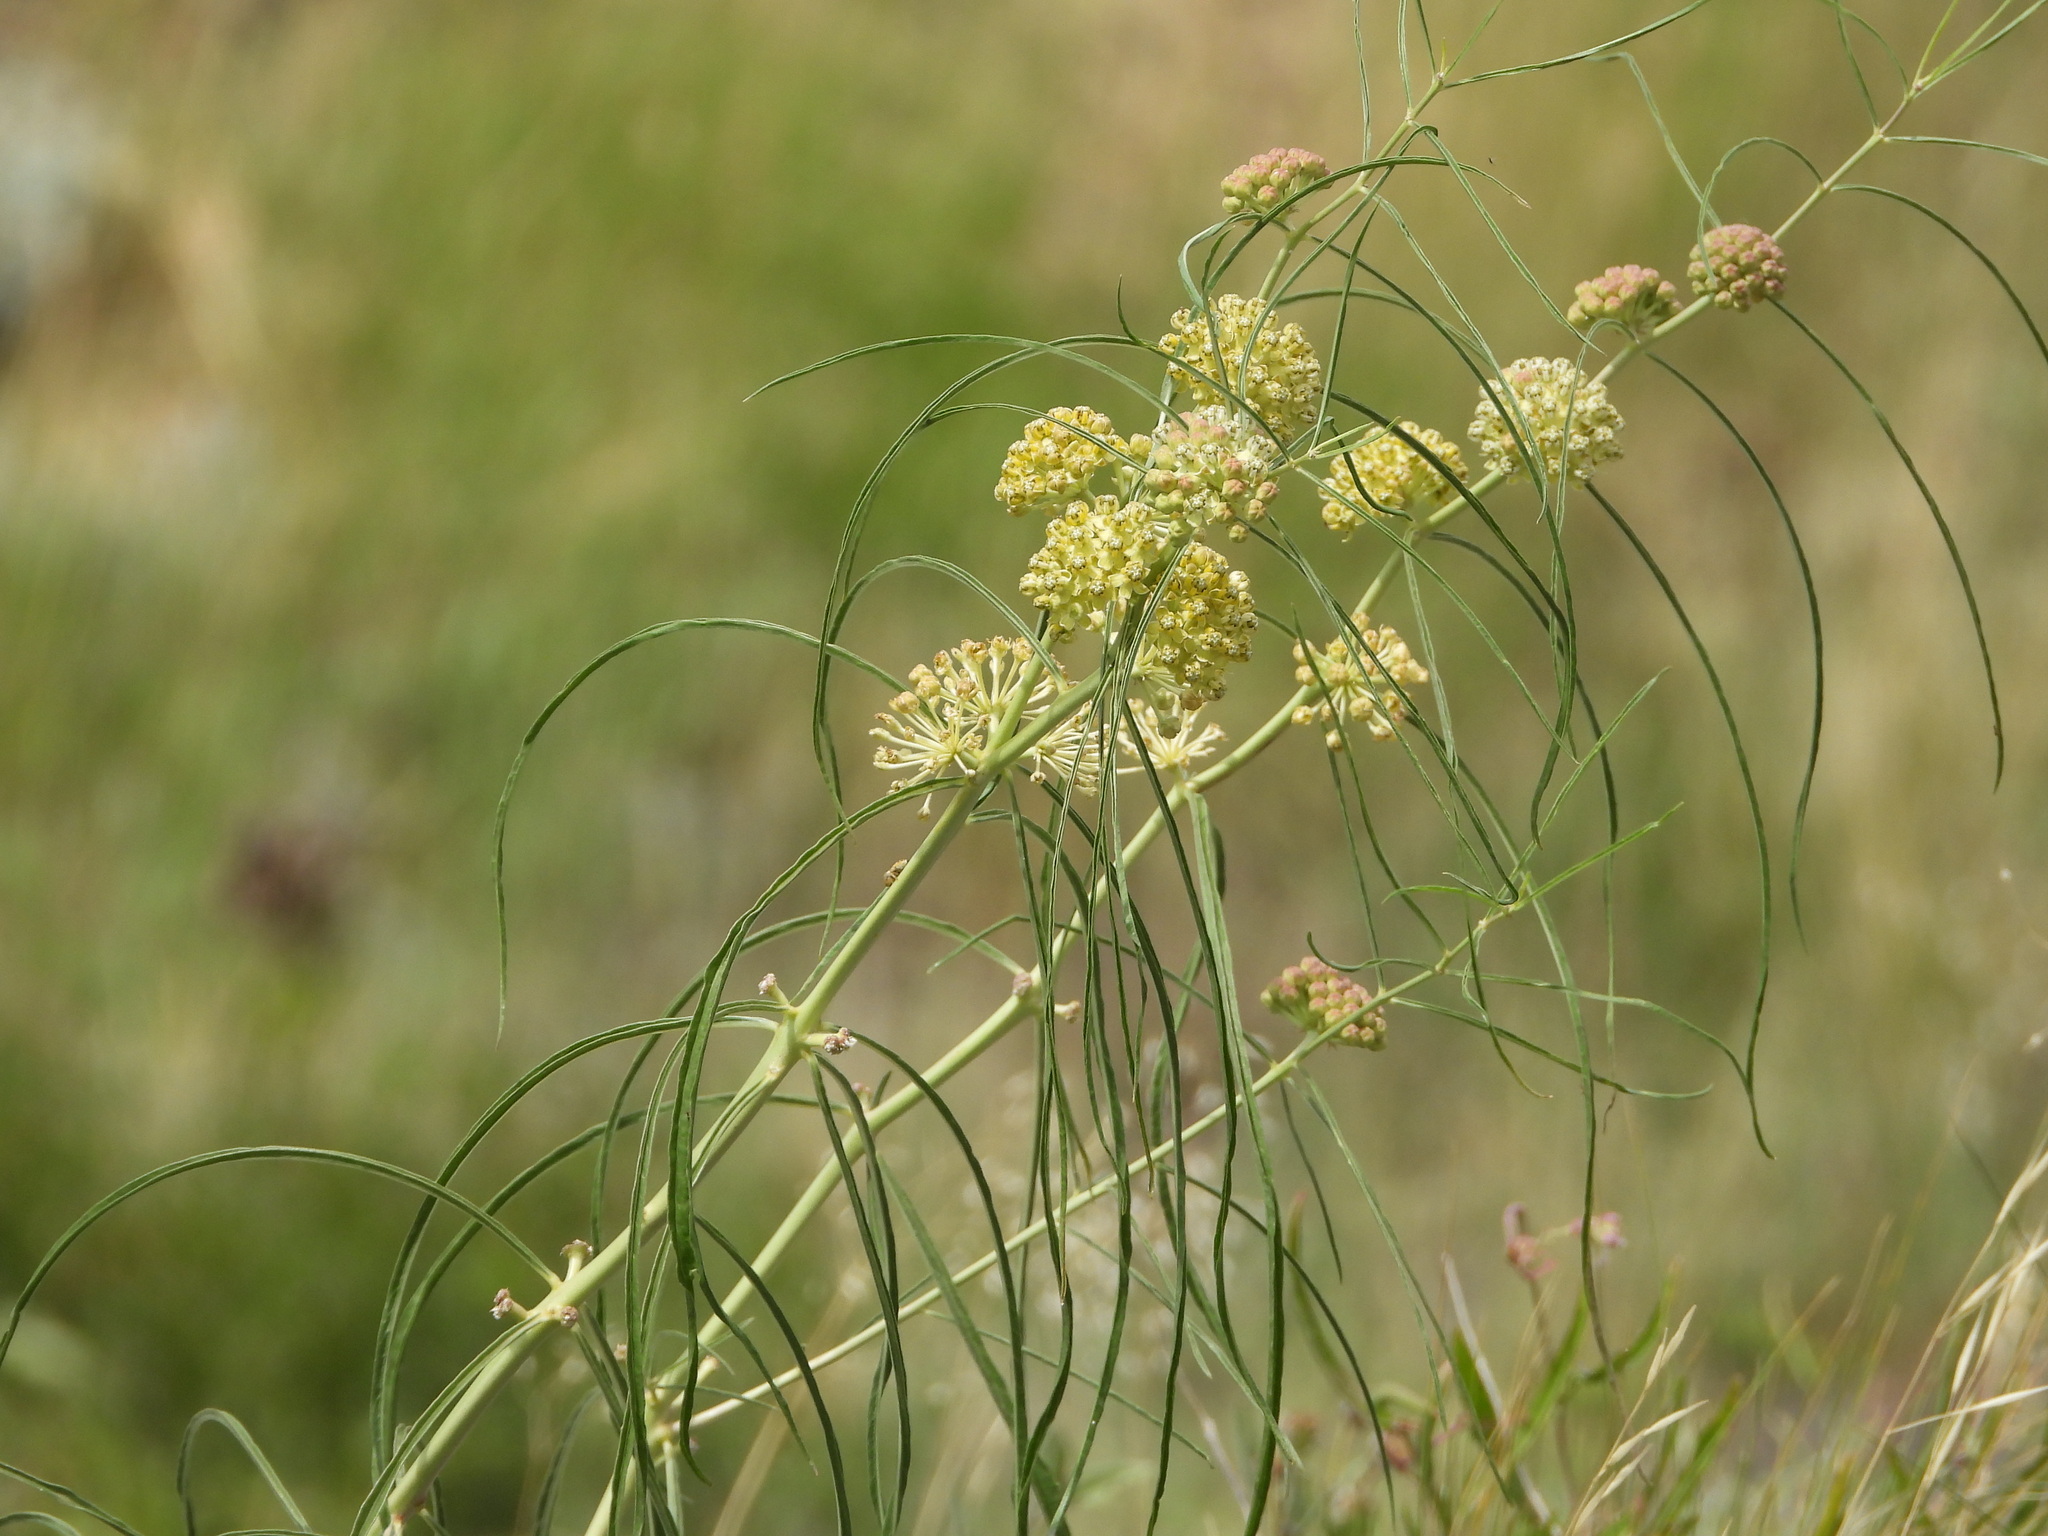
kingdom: Plantae
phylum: Tracheophyta
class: Magnoliopsida
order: Gentianales
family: Apocynaceae
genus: Asclepias
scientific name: Asclepias engelmanniana
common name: Engelmann's milkweed
